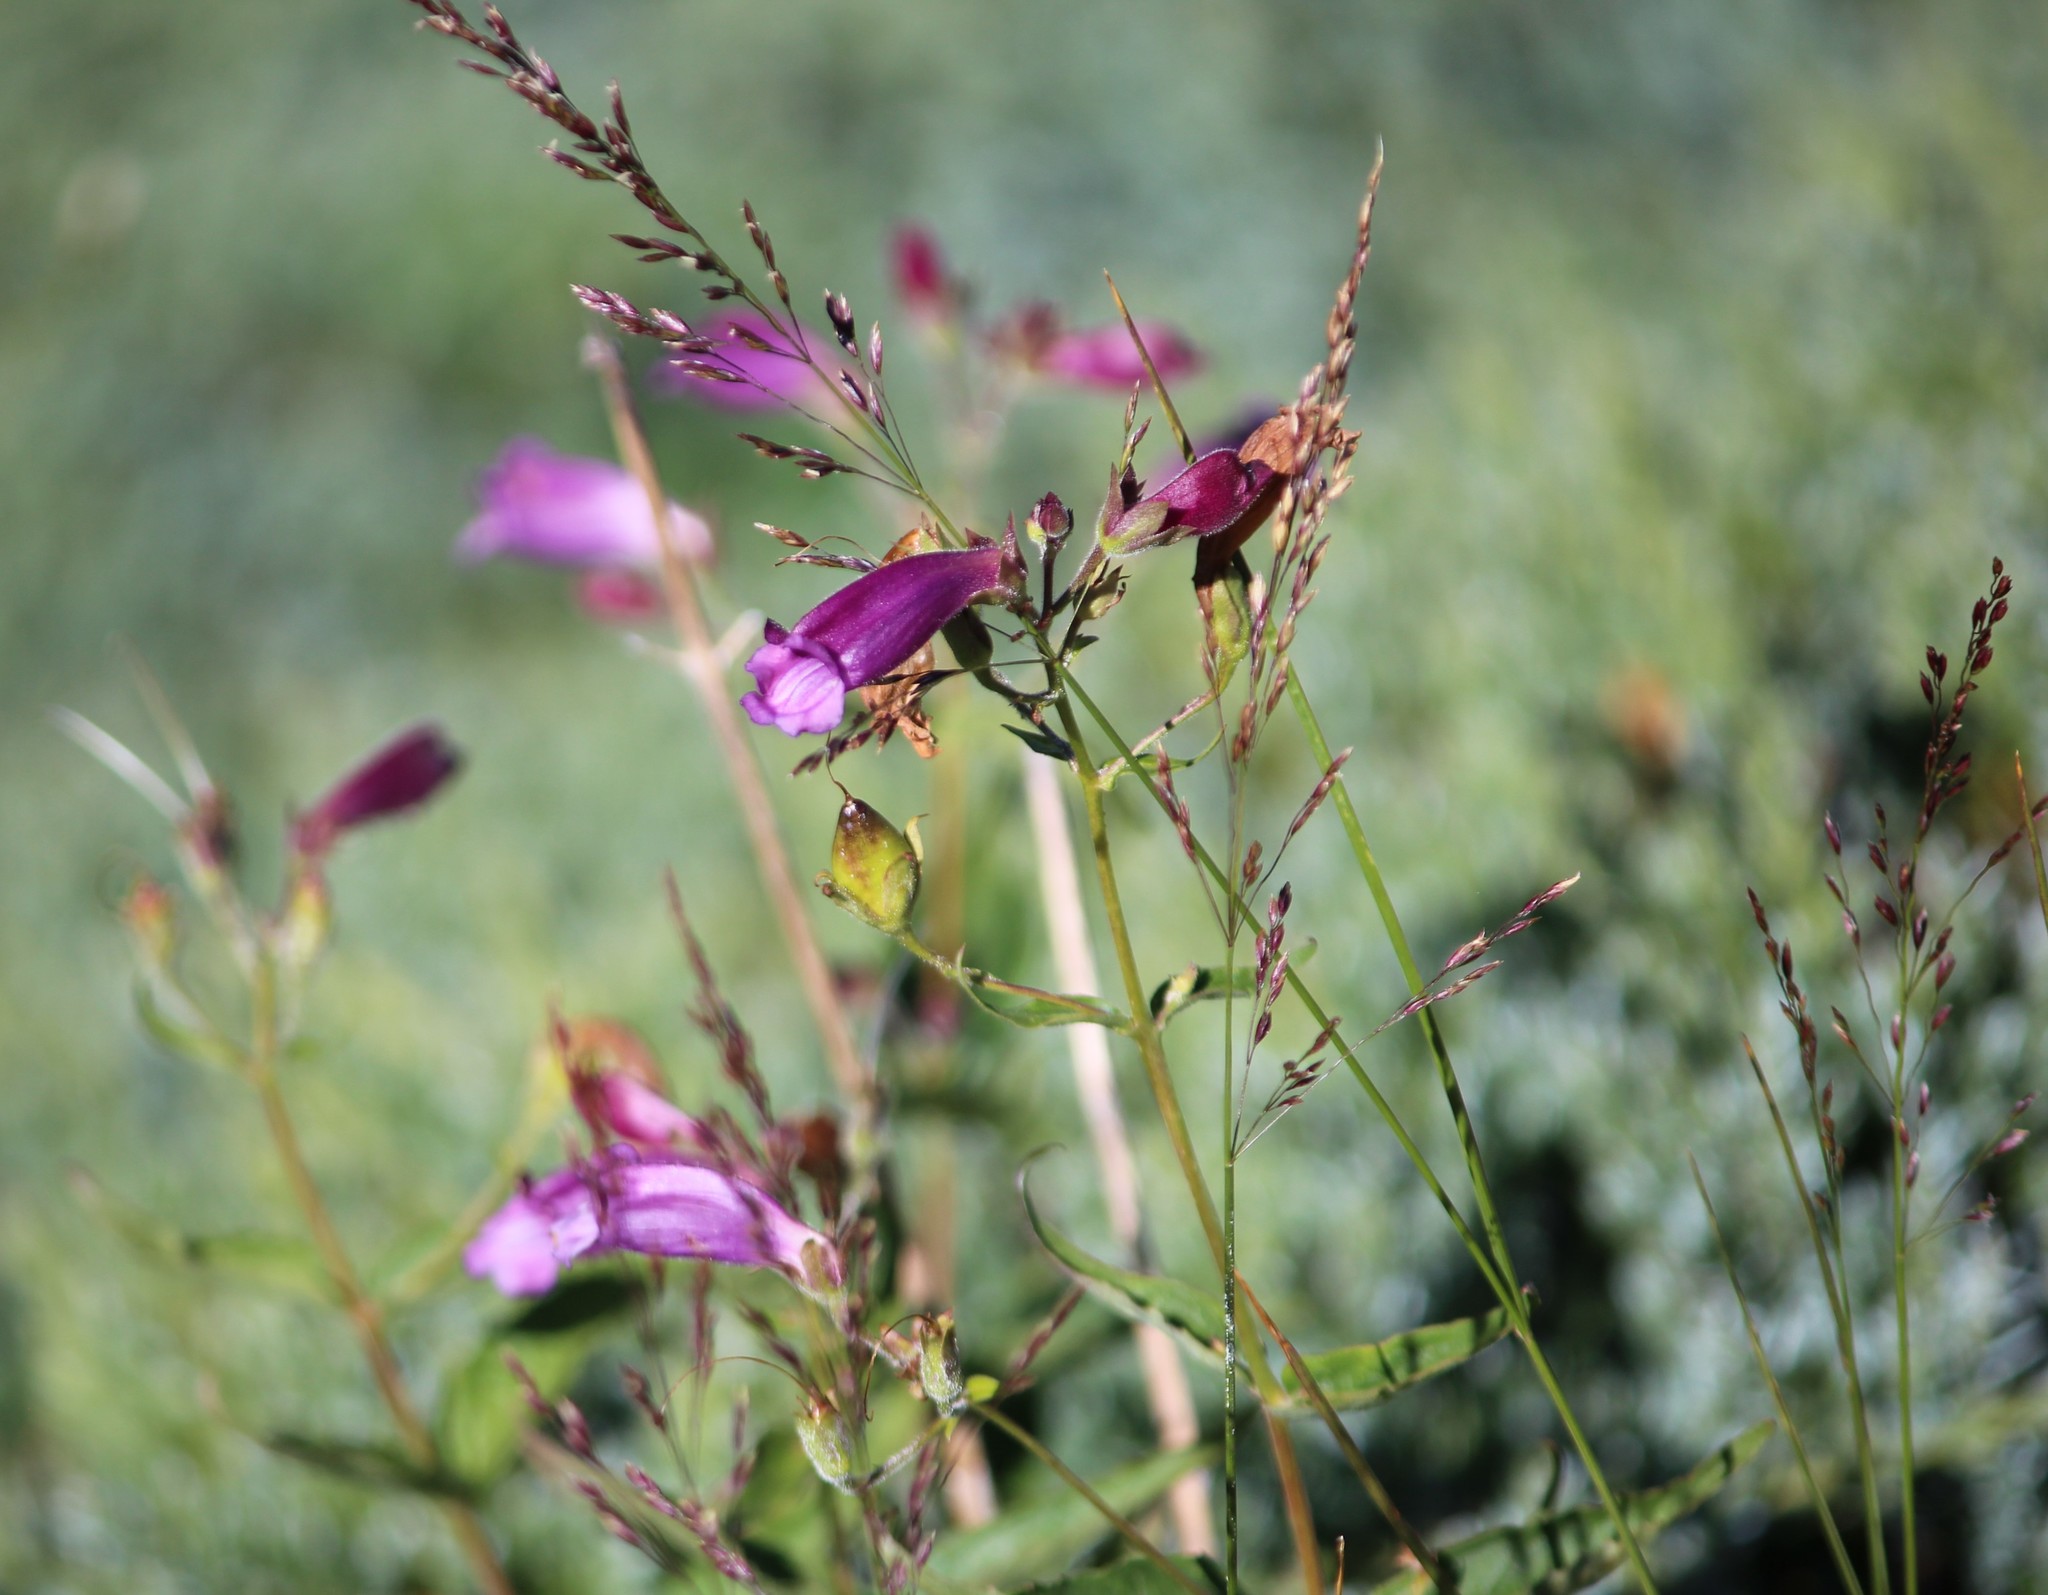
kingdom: Plantae
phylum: Tracheophyta
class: Magnoliopsida
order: Lamiales
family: Plantaginaceae
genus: Nothochelone
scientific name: Nothochelone nemorosa
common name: Woodland beardtongue
